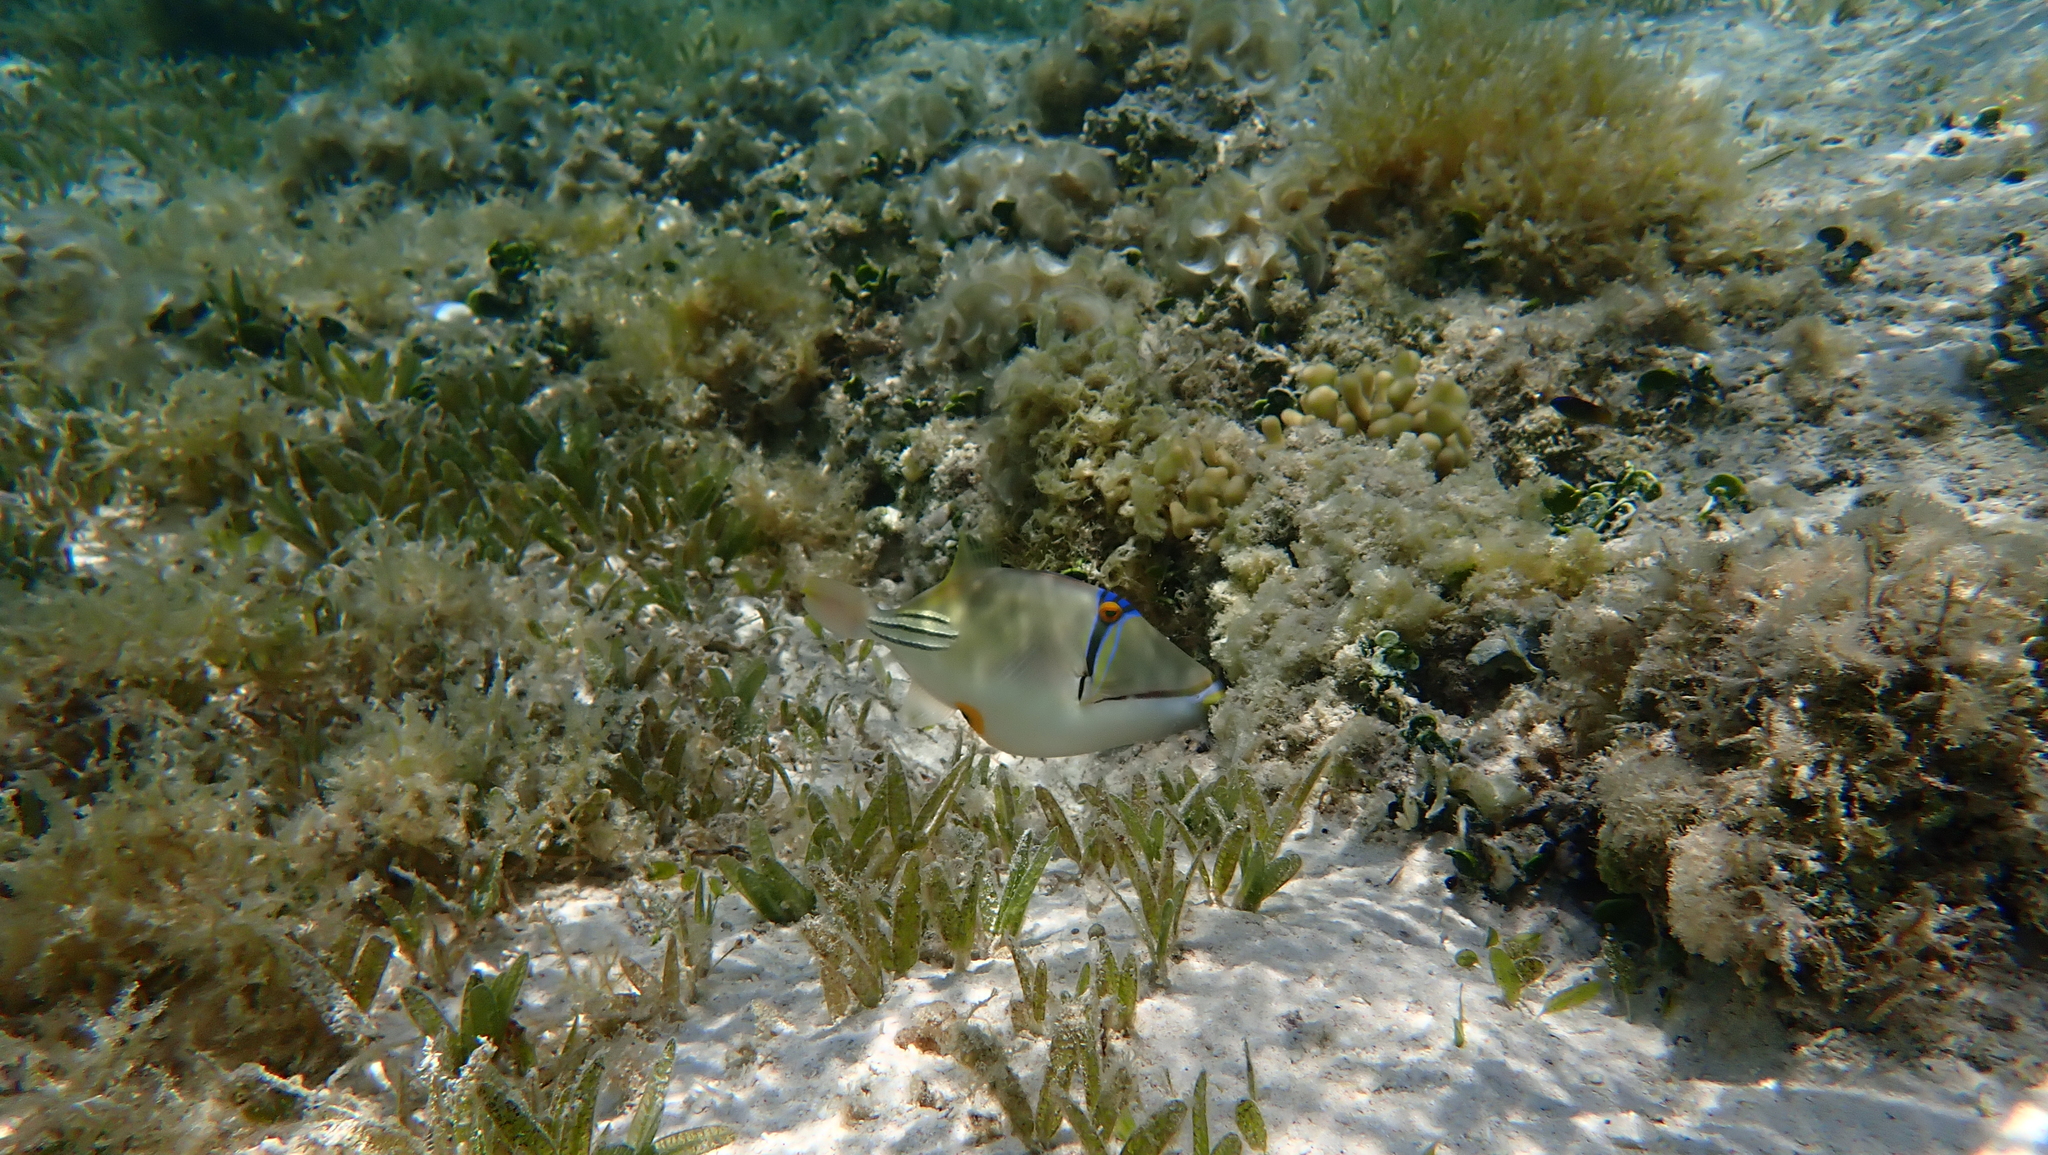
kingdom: Animalia
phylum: Chordata
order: Tetraodontiformes
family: Balistidae
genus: Rhinecanthus
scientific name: Rhinecanthus assasi
